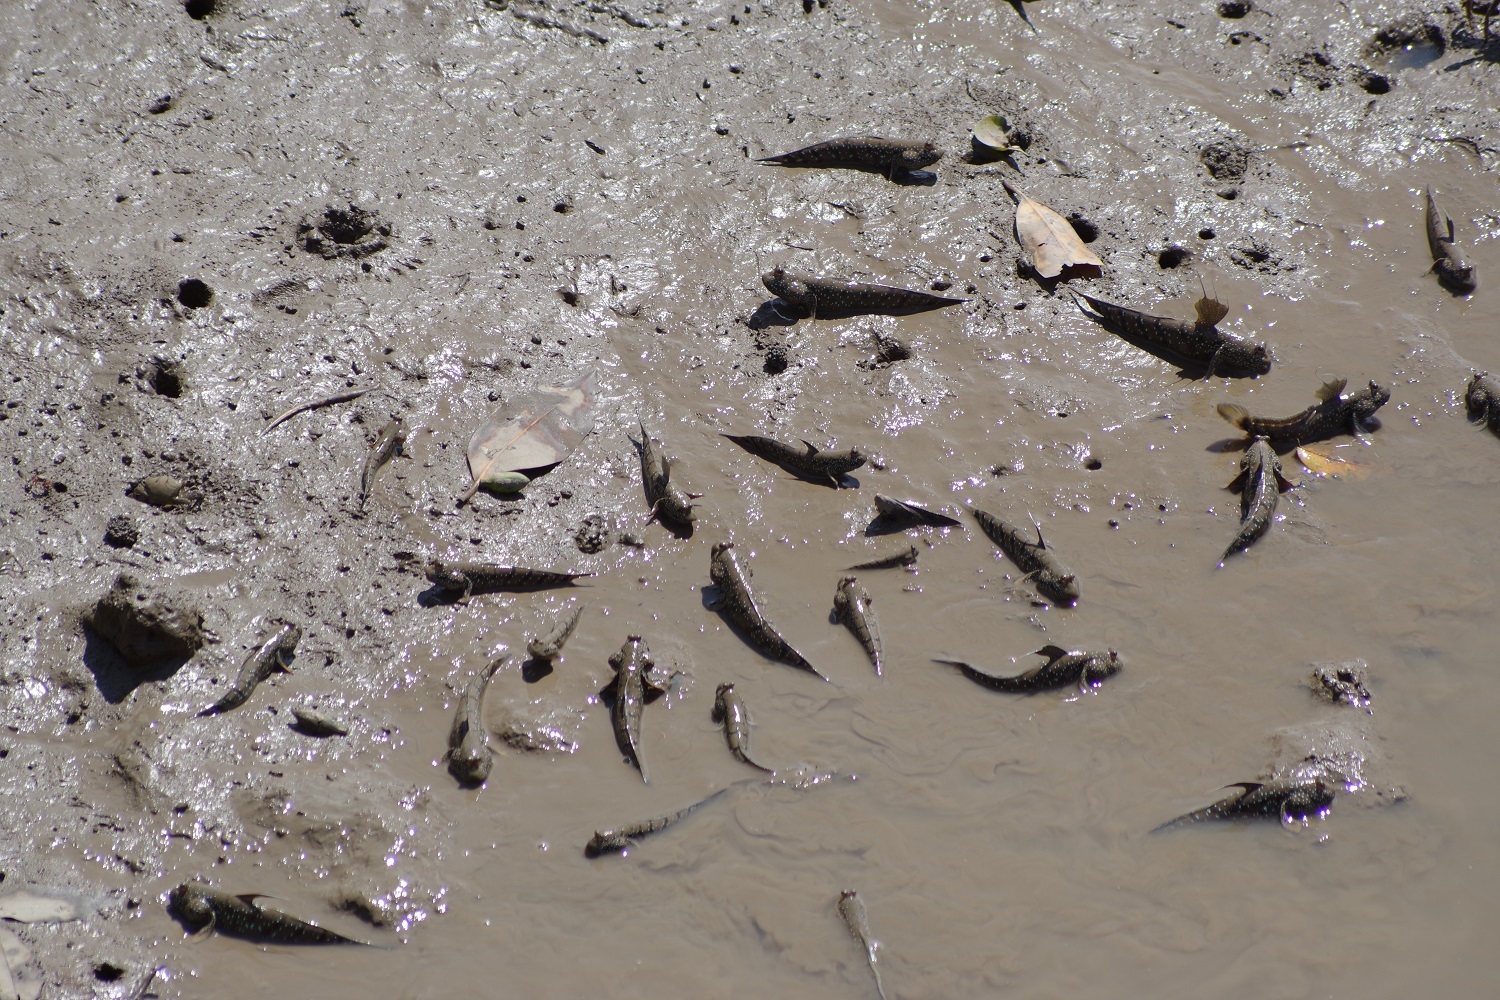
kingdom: Animalia
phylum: Chordata
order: Perciformes
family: Gobiidae
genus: Boleophthalmus
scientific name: Boleophthalmus boddarti
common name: Boddart's goggle-eyed goby
